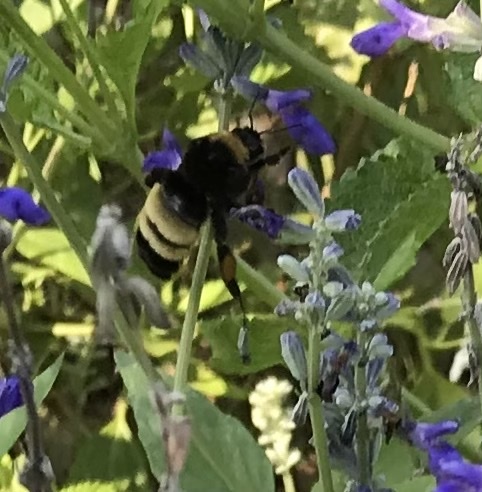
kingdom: Animalia
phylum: Arthropoda
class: Insecta
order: Hymenoptera
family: Apidae
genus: Bombus
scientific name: Bombus pensylvanicus
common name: Bumble bee
